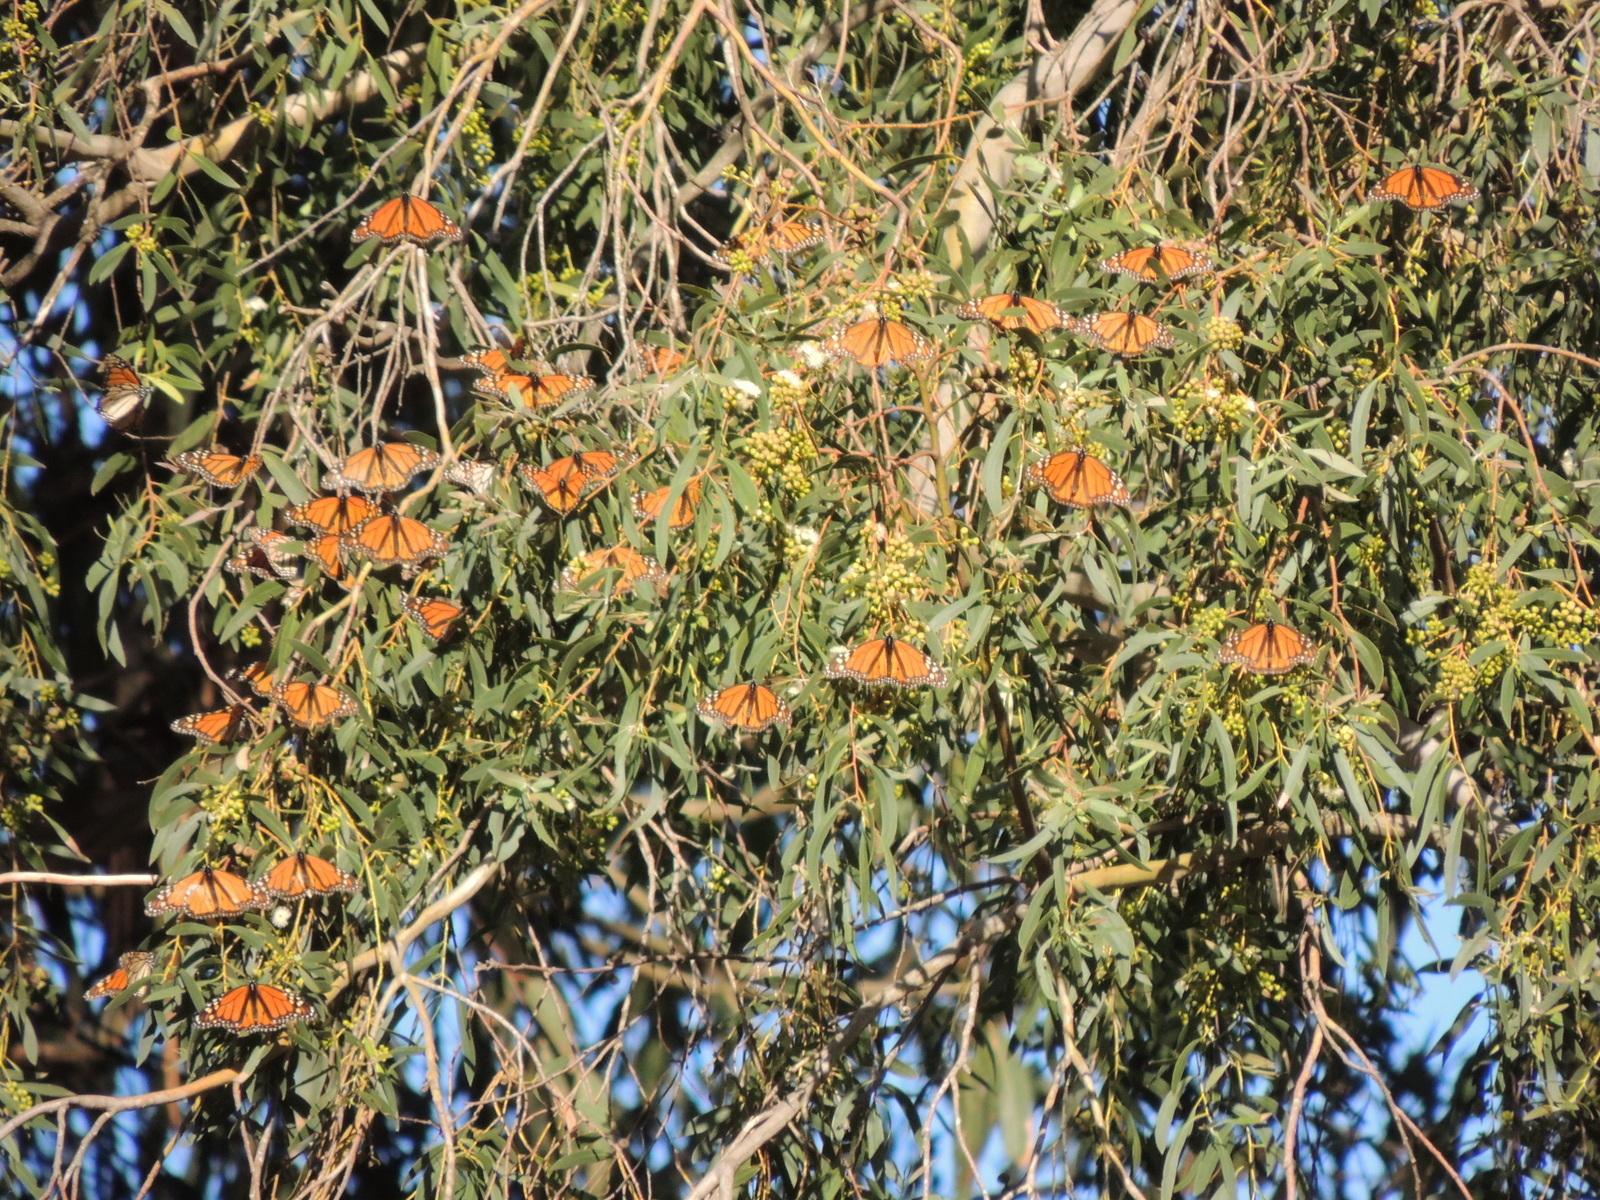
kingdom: Animalia
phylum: Arthropoda
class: Insecta
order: Lepidoptera
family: Nymphalidae
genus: Danaus
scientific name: Danaus plexippus
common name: Monarch
